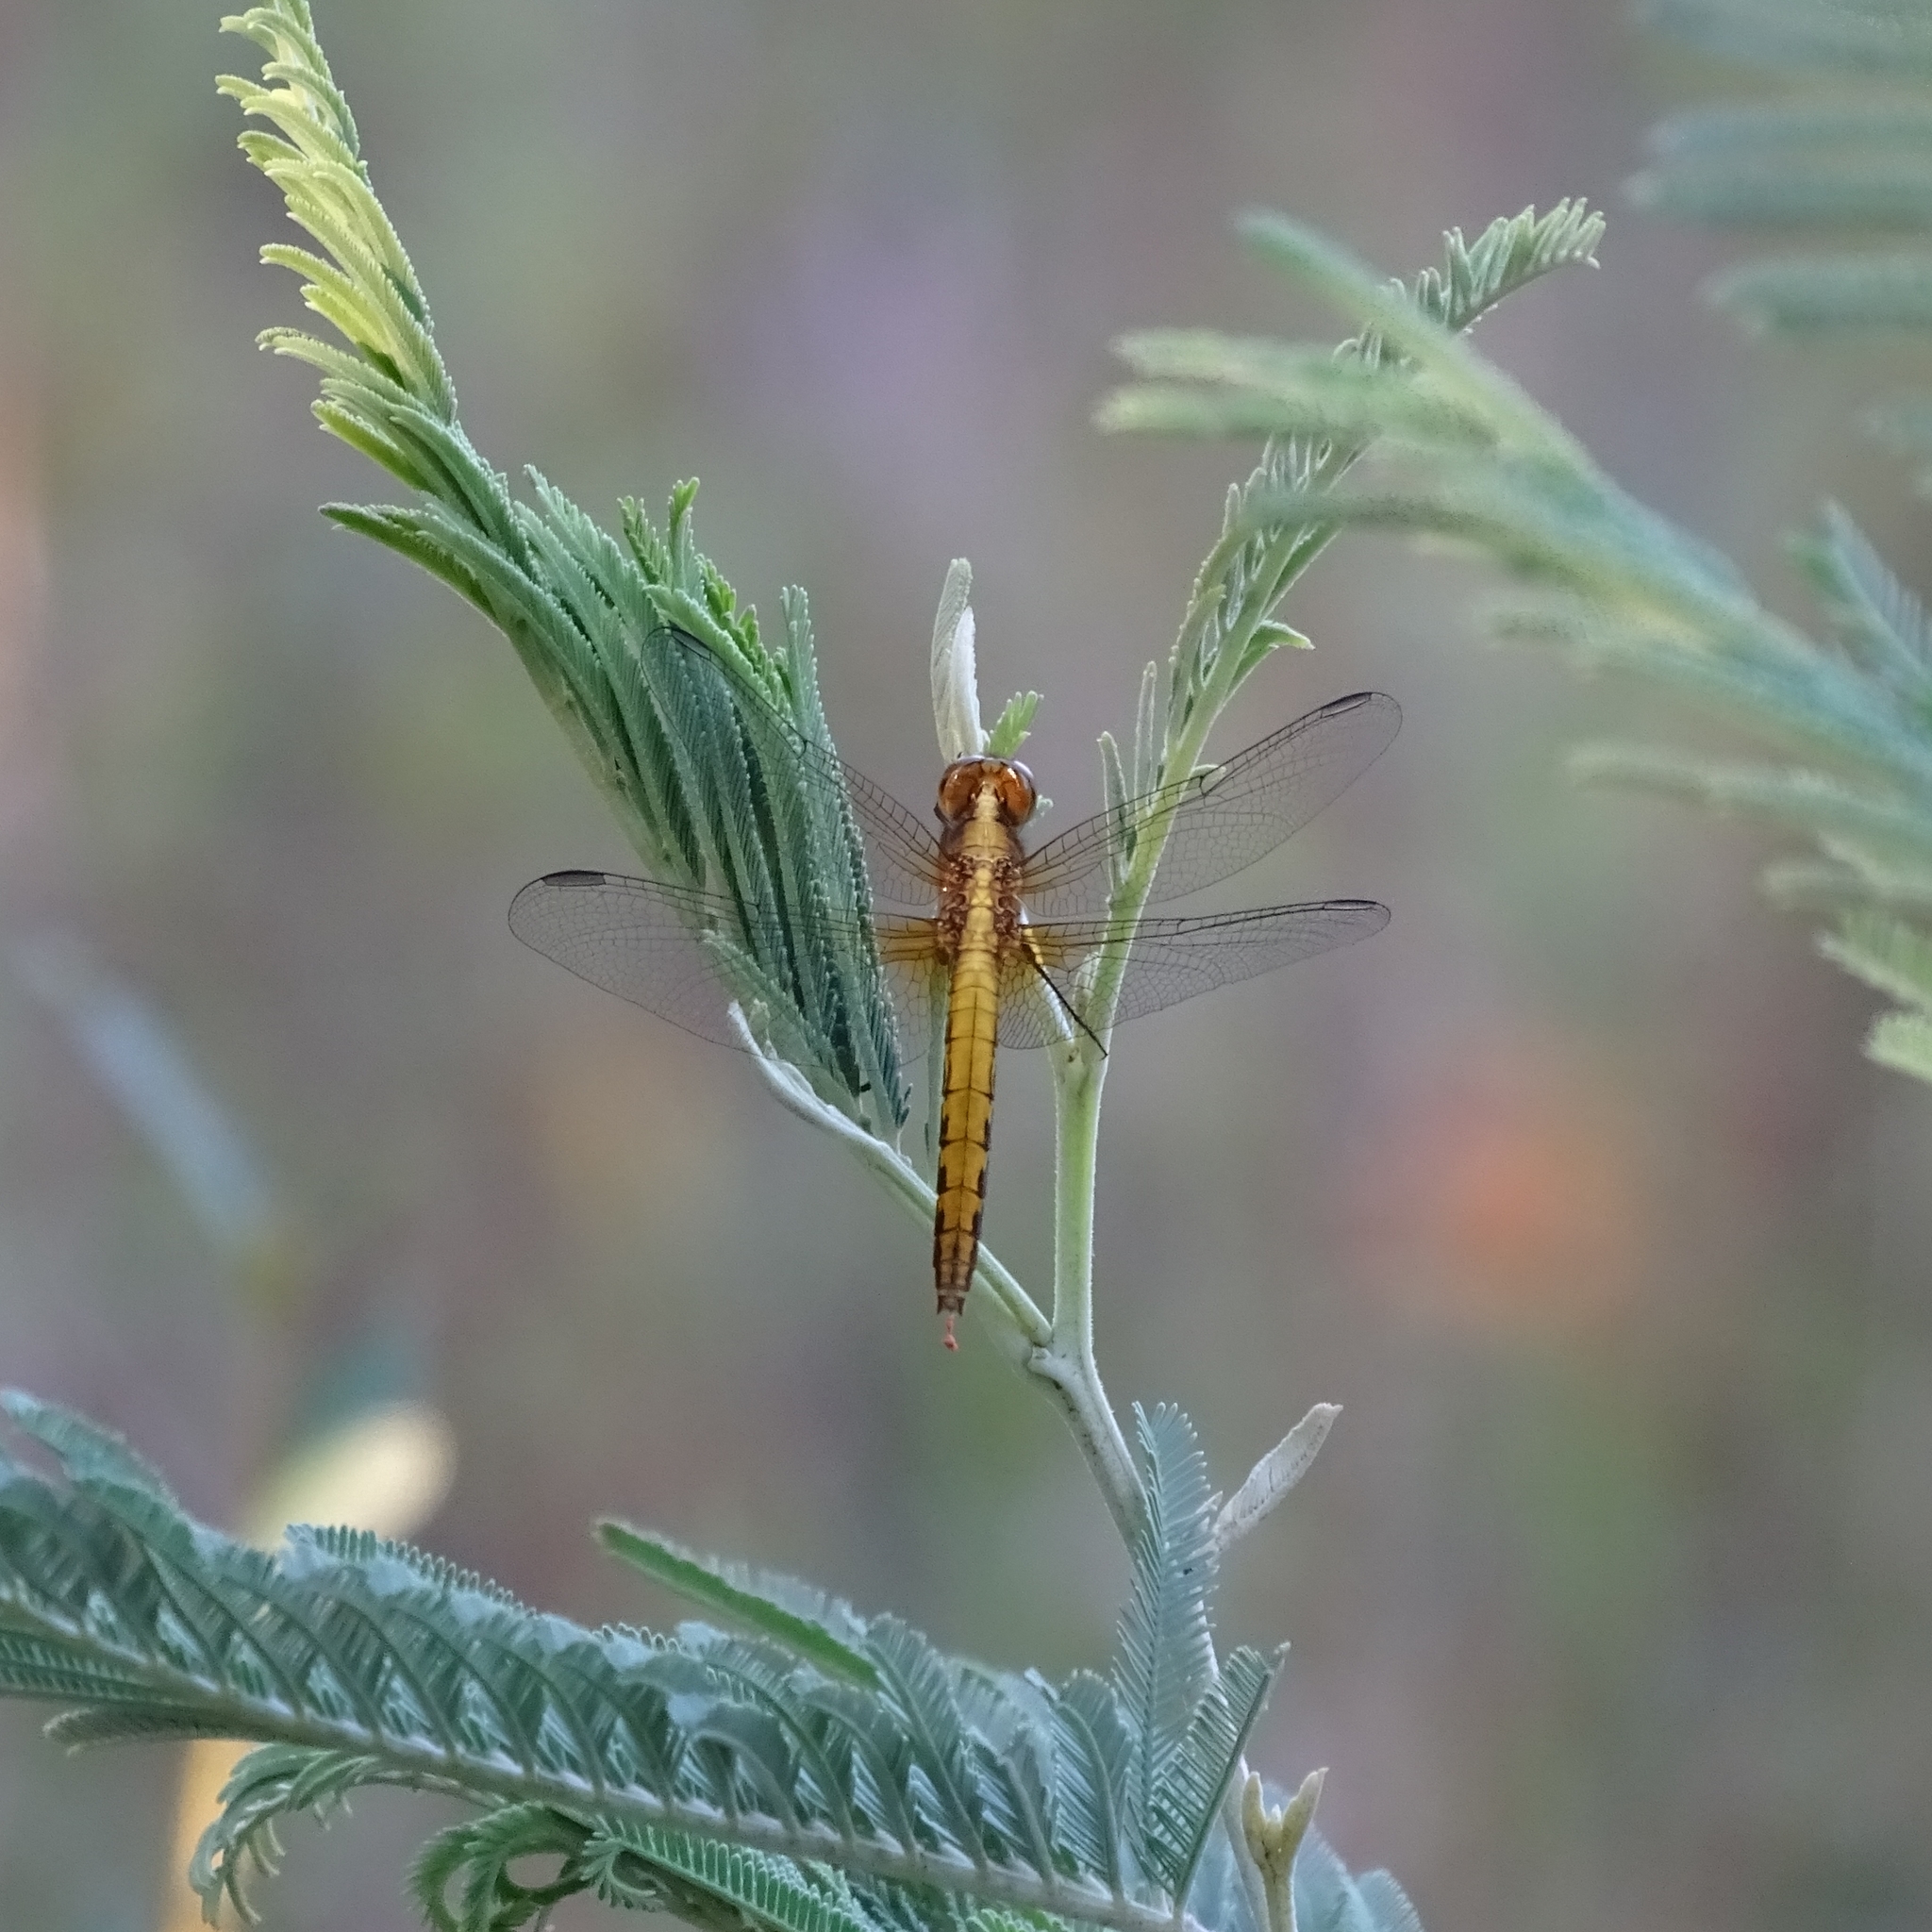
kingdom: Animalia
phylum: Arthropoda
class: Insecta
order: Odonata
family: Libellulidae
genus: Erythrodiplax
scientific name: Erythrodiplax connata
